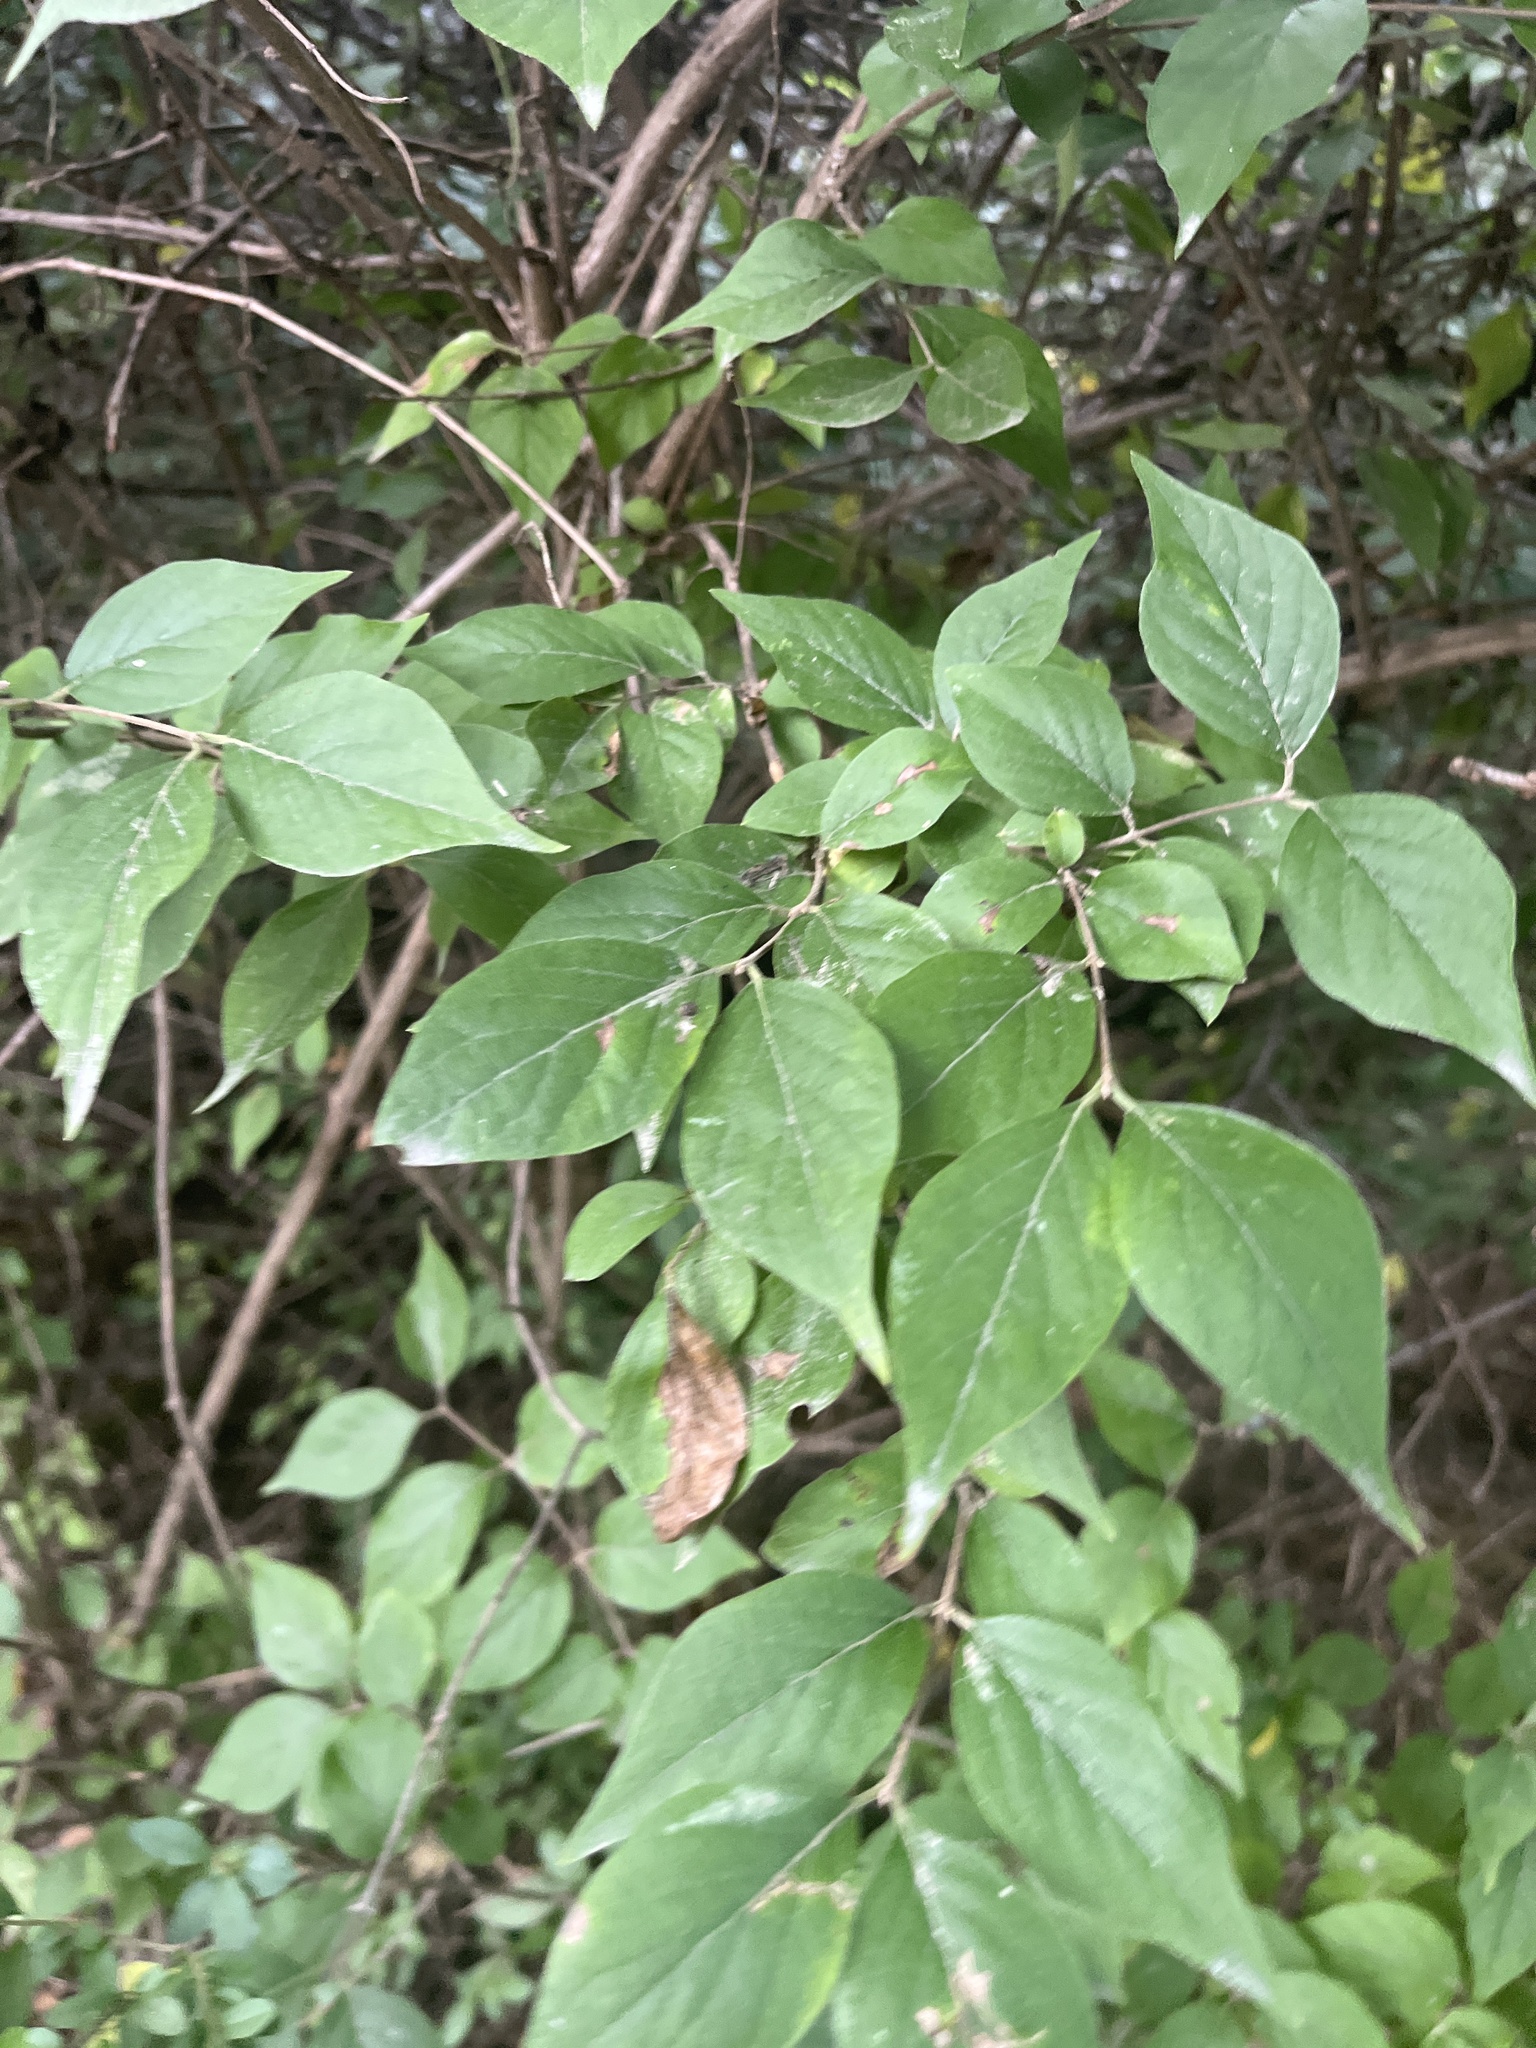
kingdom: Plantae
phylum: Tracheophyta
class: Magnoliopsida
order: Dipsacales
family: Caprifoliaceae
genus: Lonicera
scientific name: Lonicera maackii
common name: Amur honeysuckle
